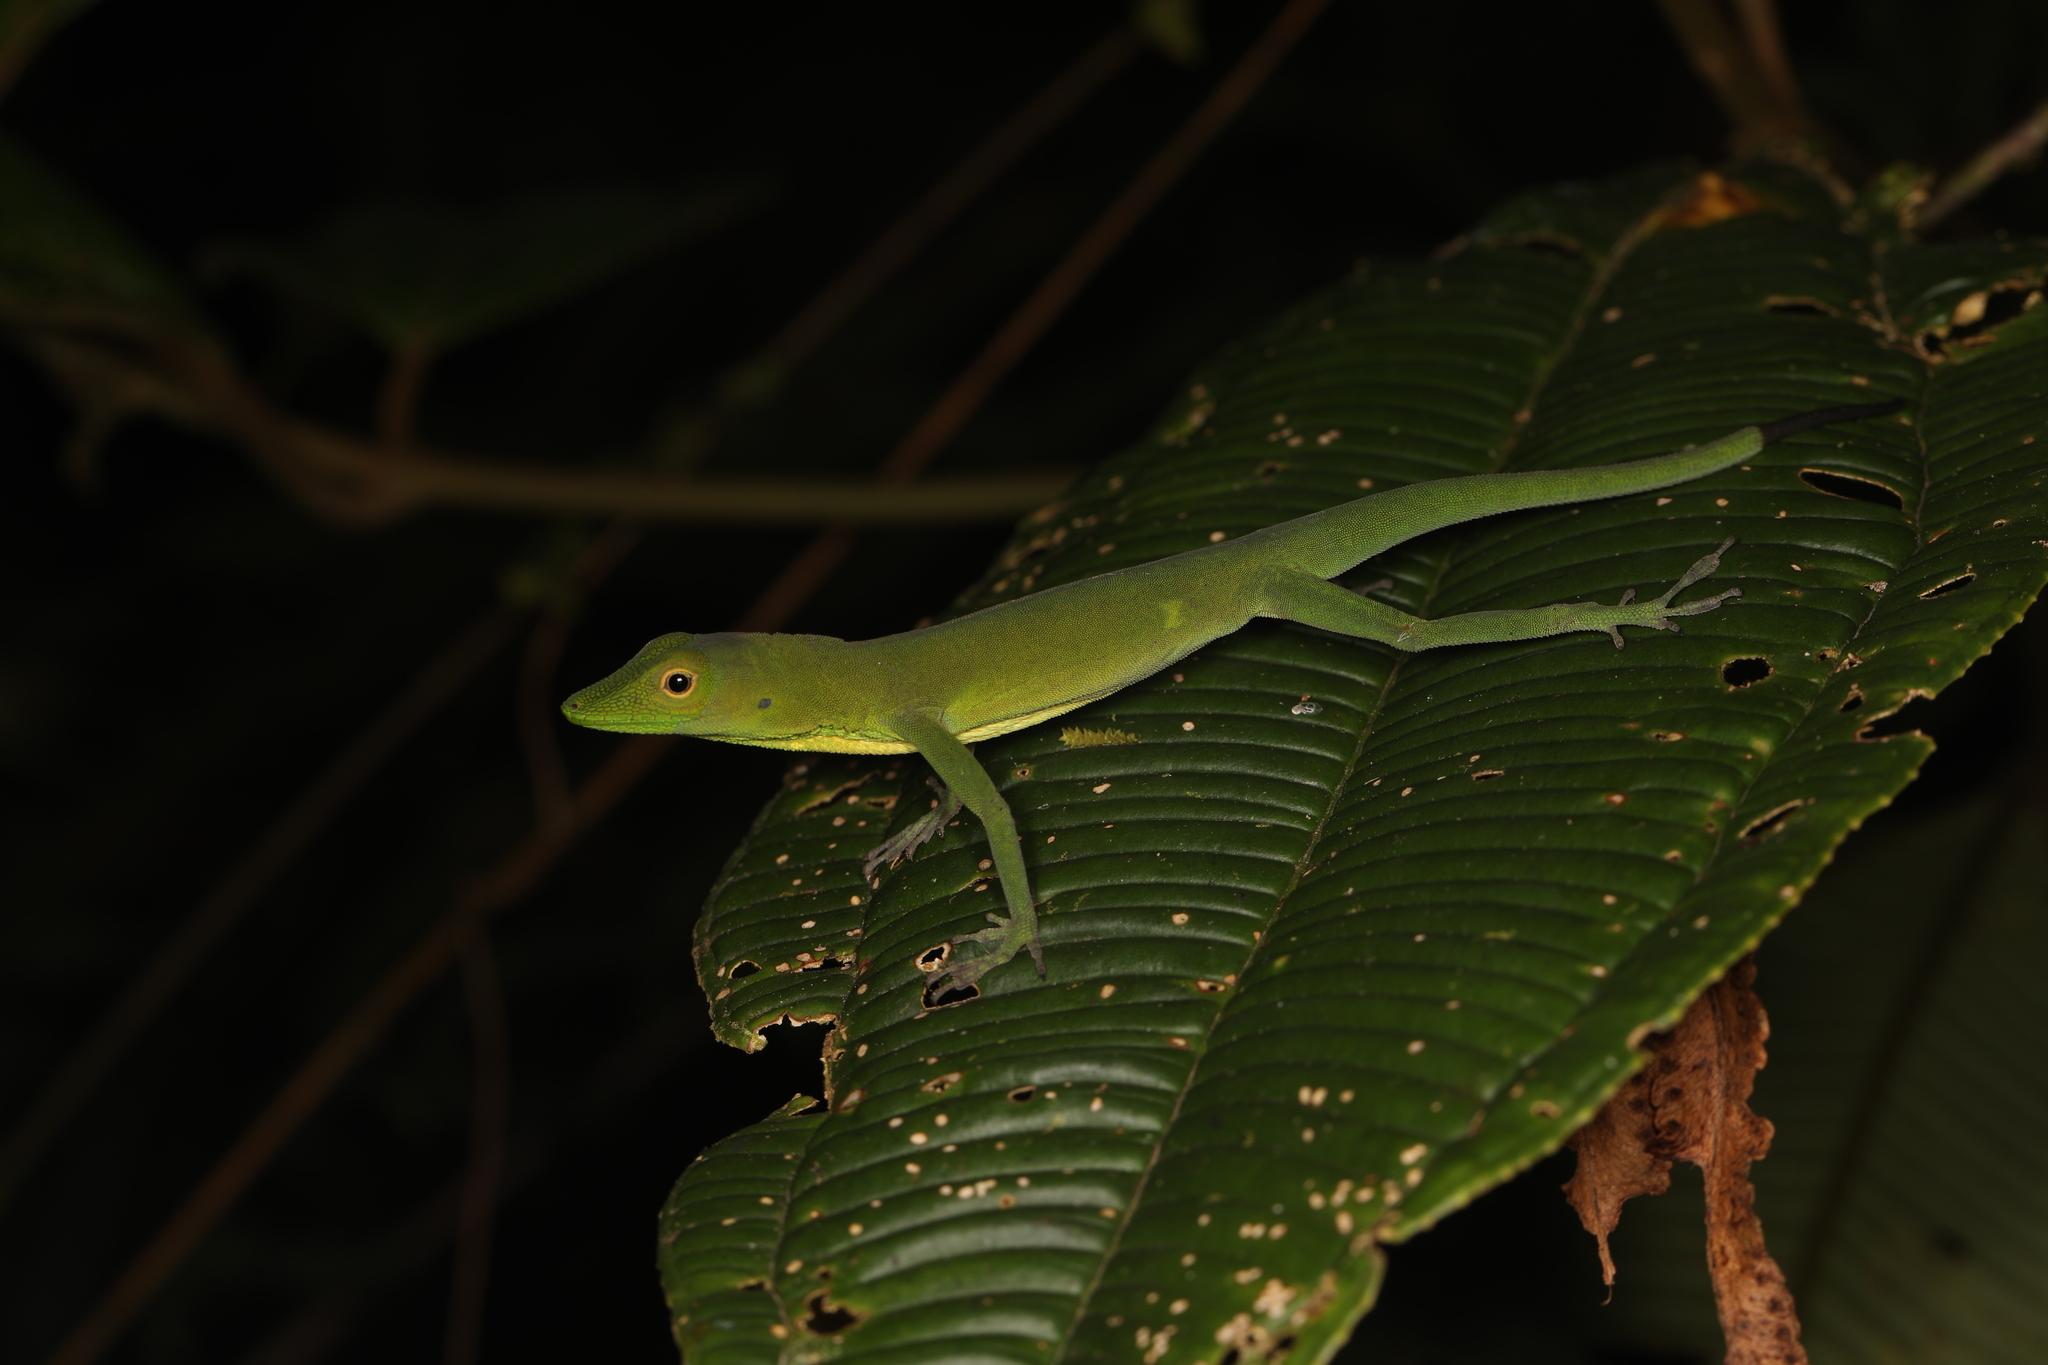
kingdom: Animalia
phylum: Chordata
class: Squamata
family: Dactyloidae
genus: Anolis
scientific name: Anolis chloris
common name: Boulenger's green anole
